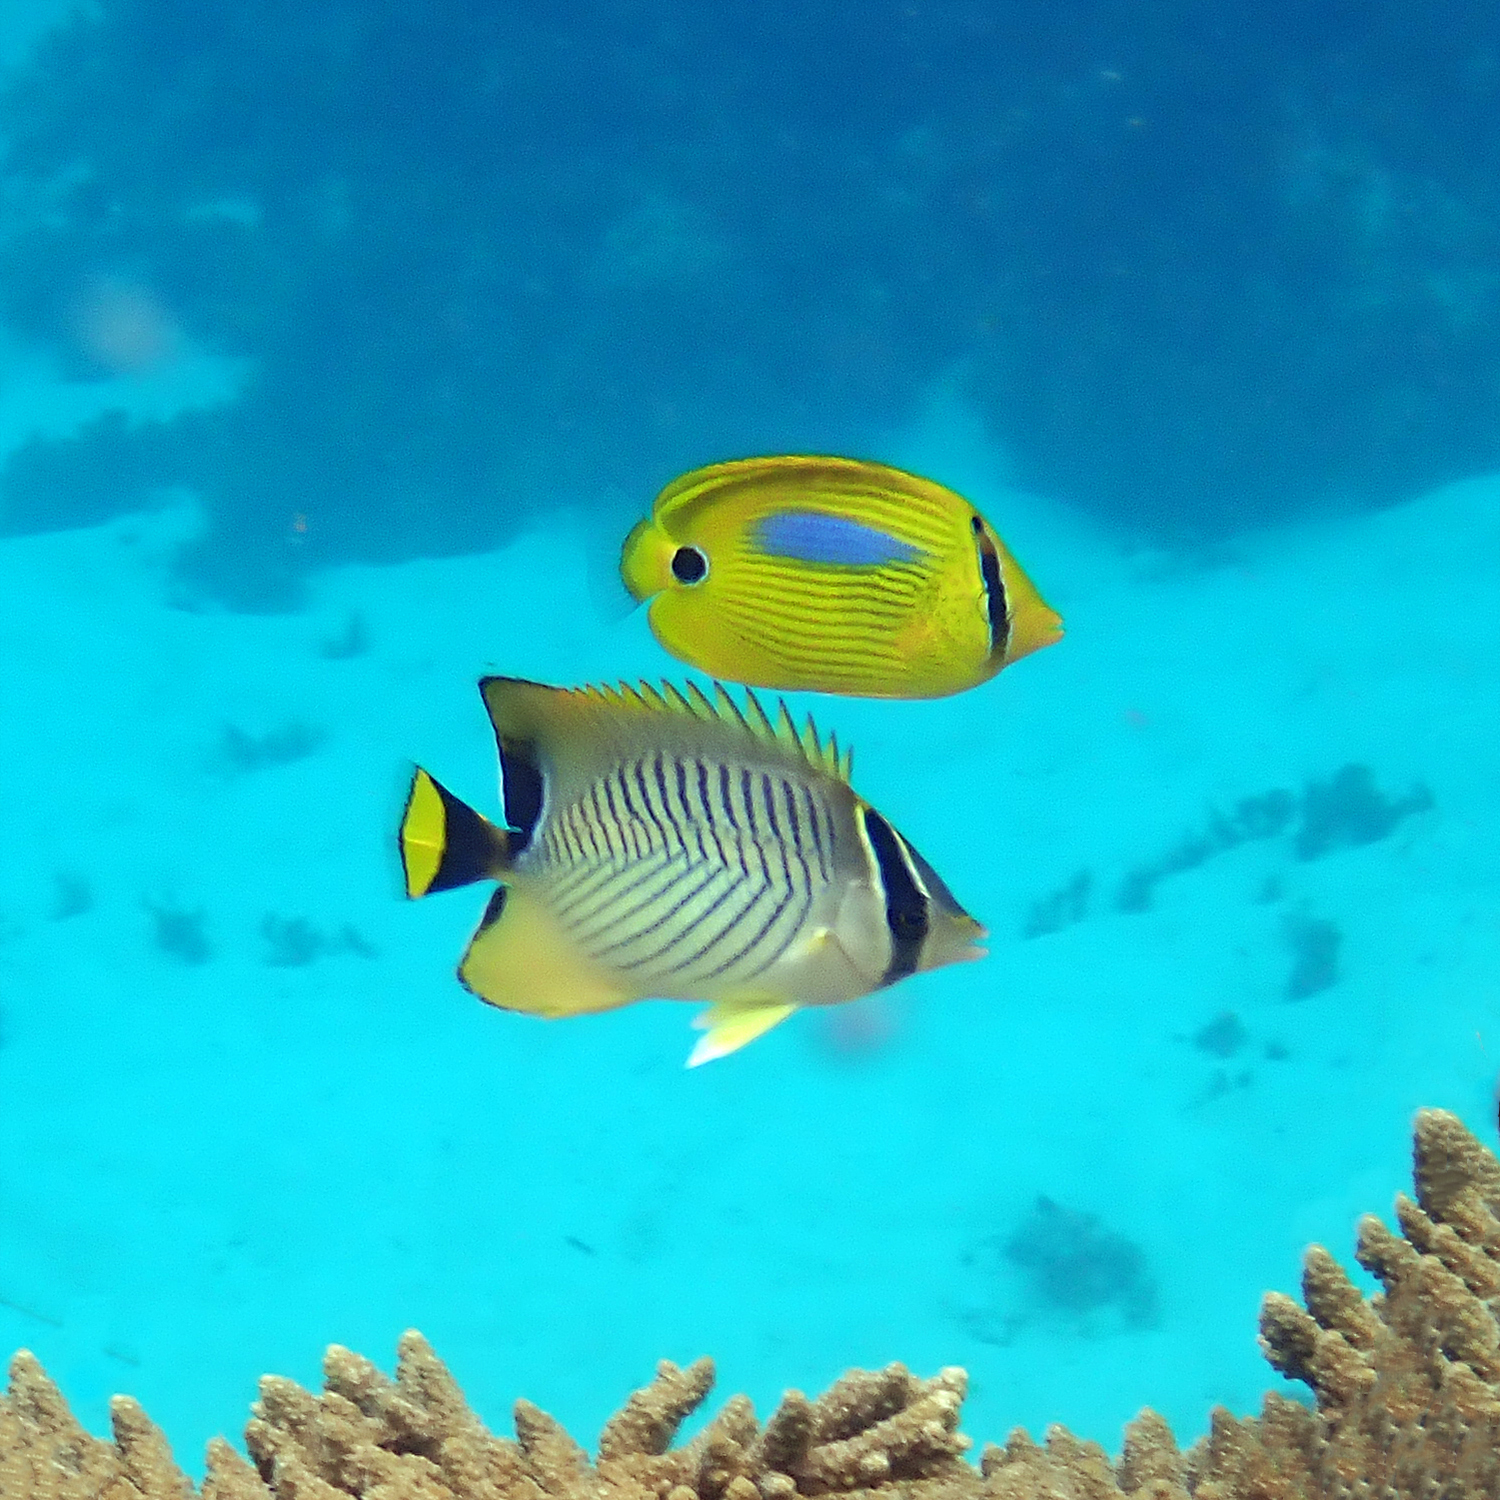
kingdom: Animalia
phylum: Chordata
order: Perciformes
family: Chaetodontidae
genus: Chaetodon
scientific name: Chaetodon trifascialis
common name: Chevroned butterflyfish
